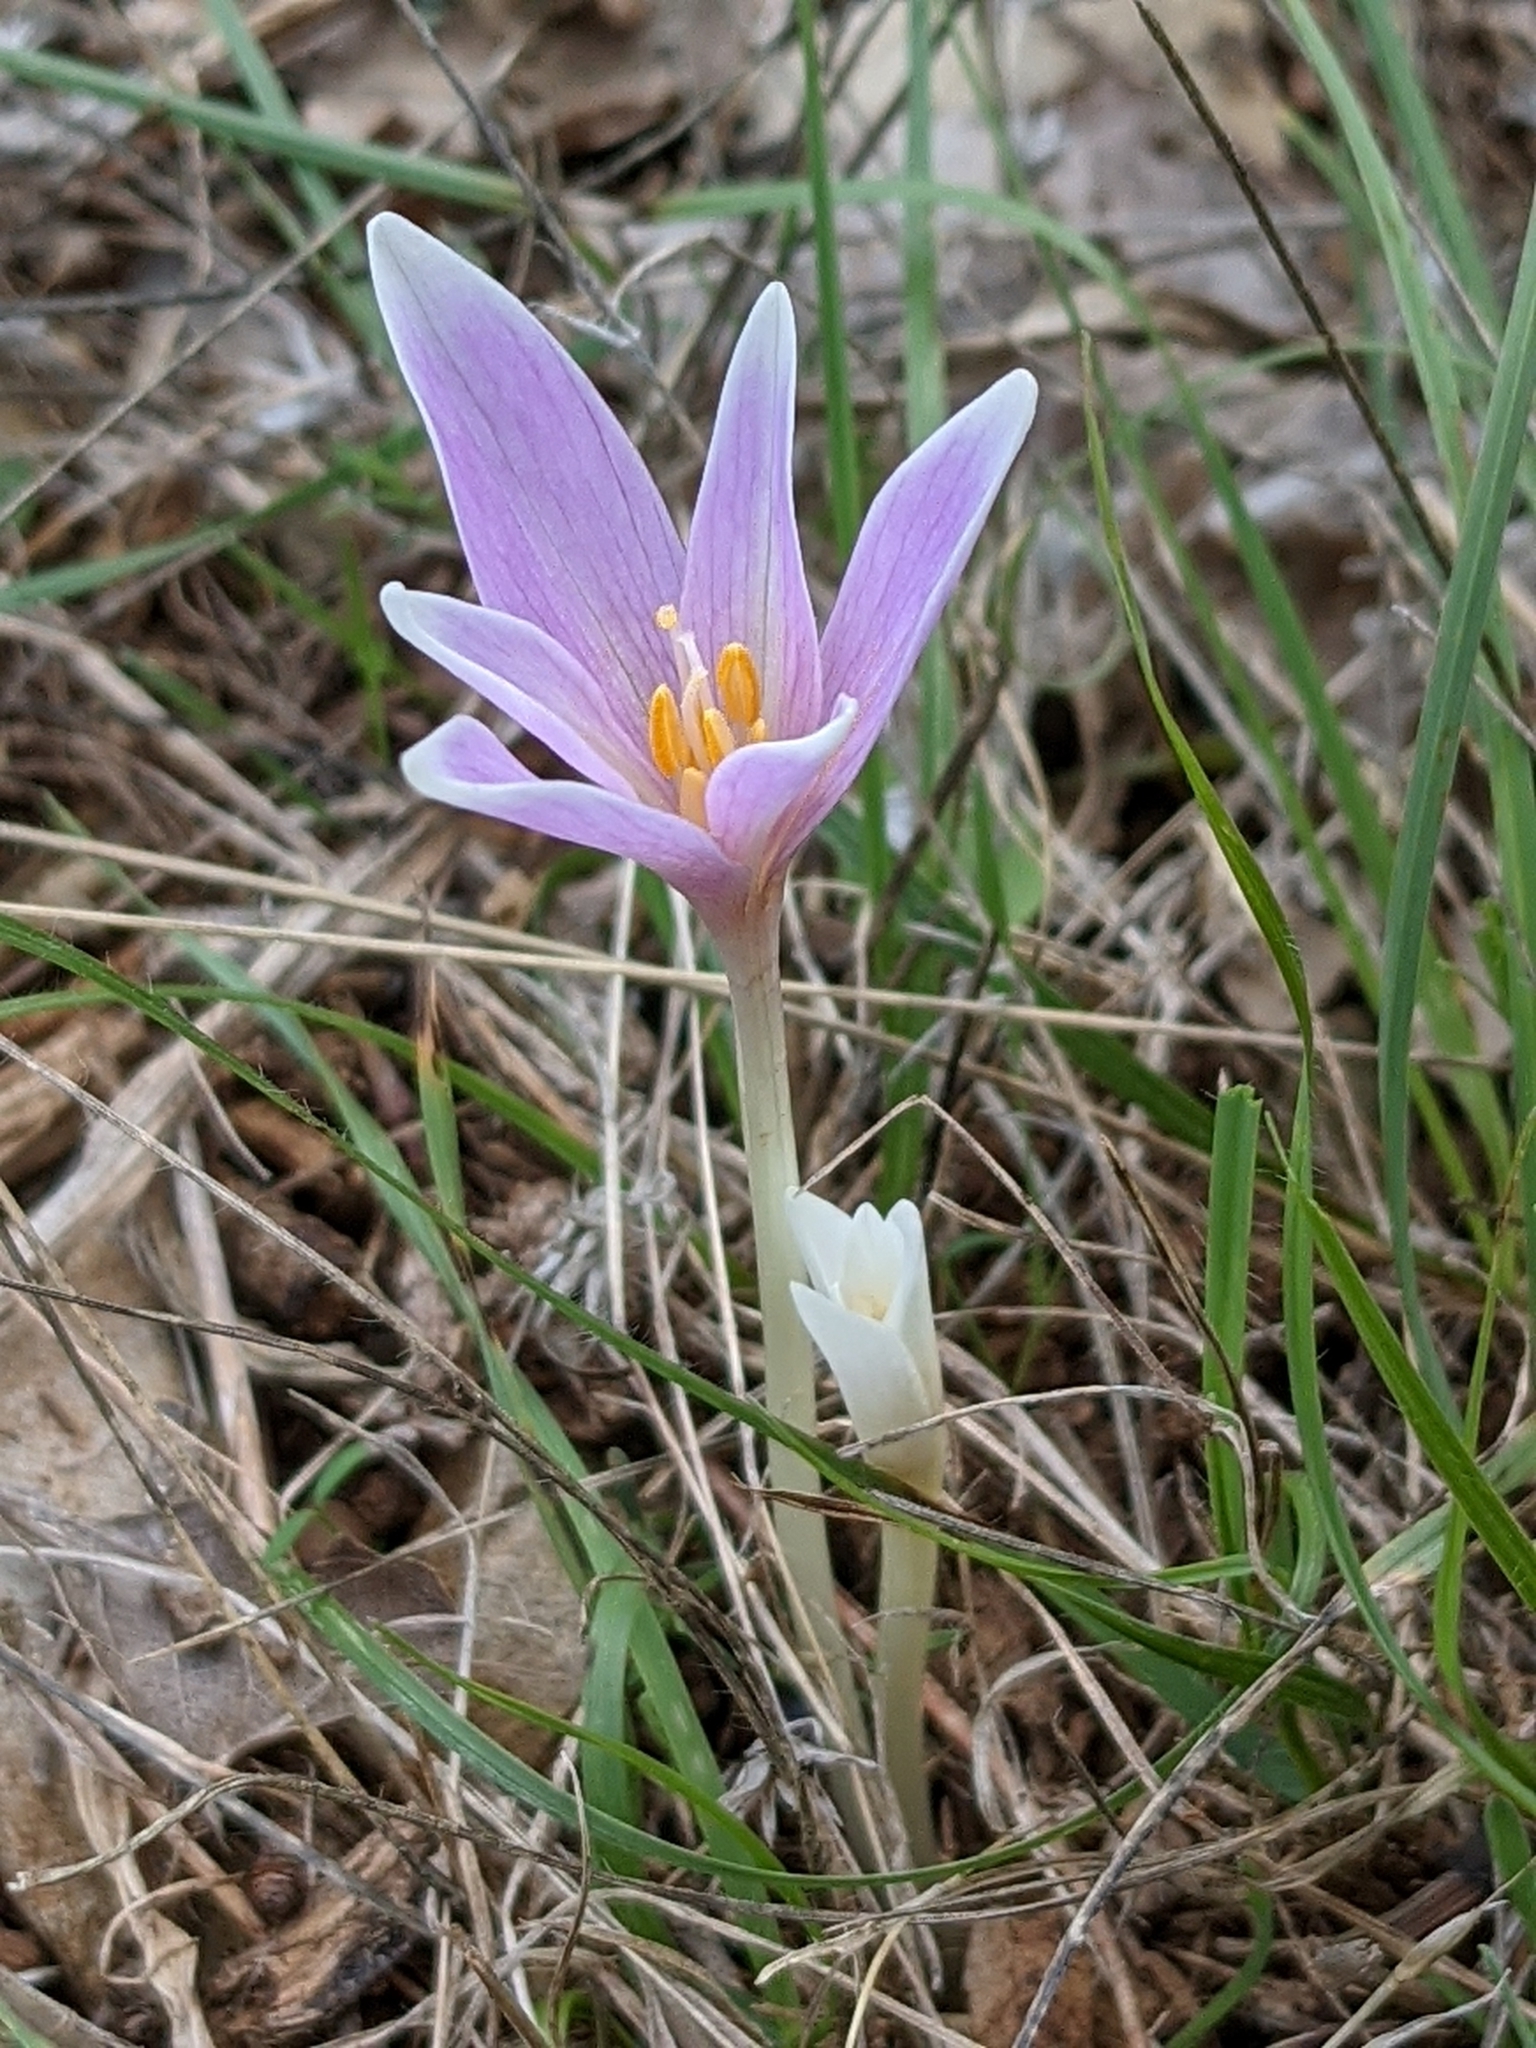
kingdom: Plantae
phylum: Tracheophyta
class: Liliopsida
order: Liliales
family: Colchicaceae
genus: Colchicum
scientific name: Colchicum longifolium
